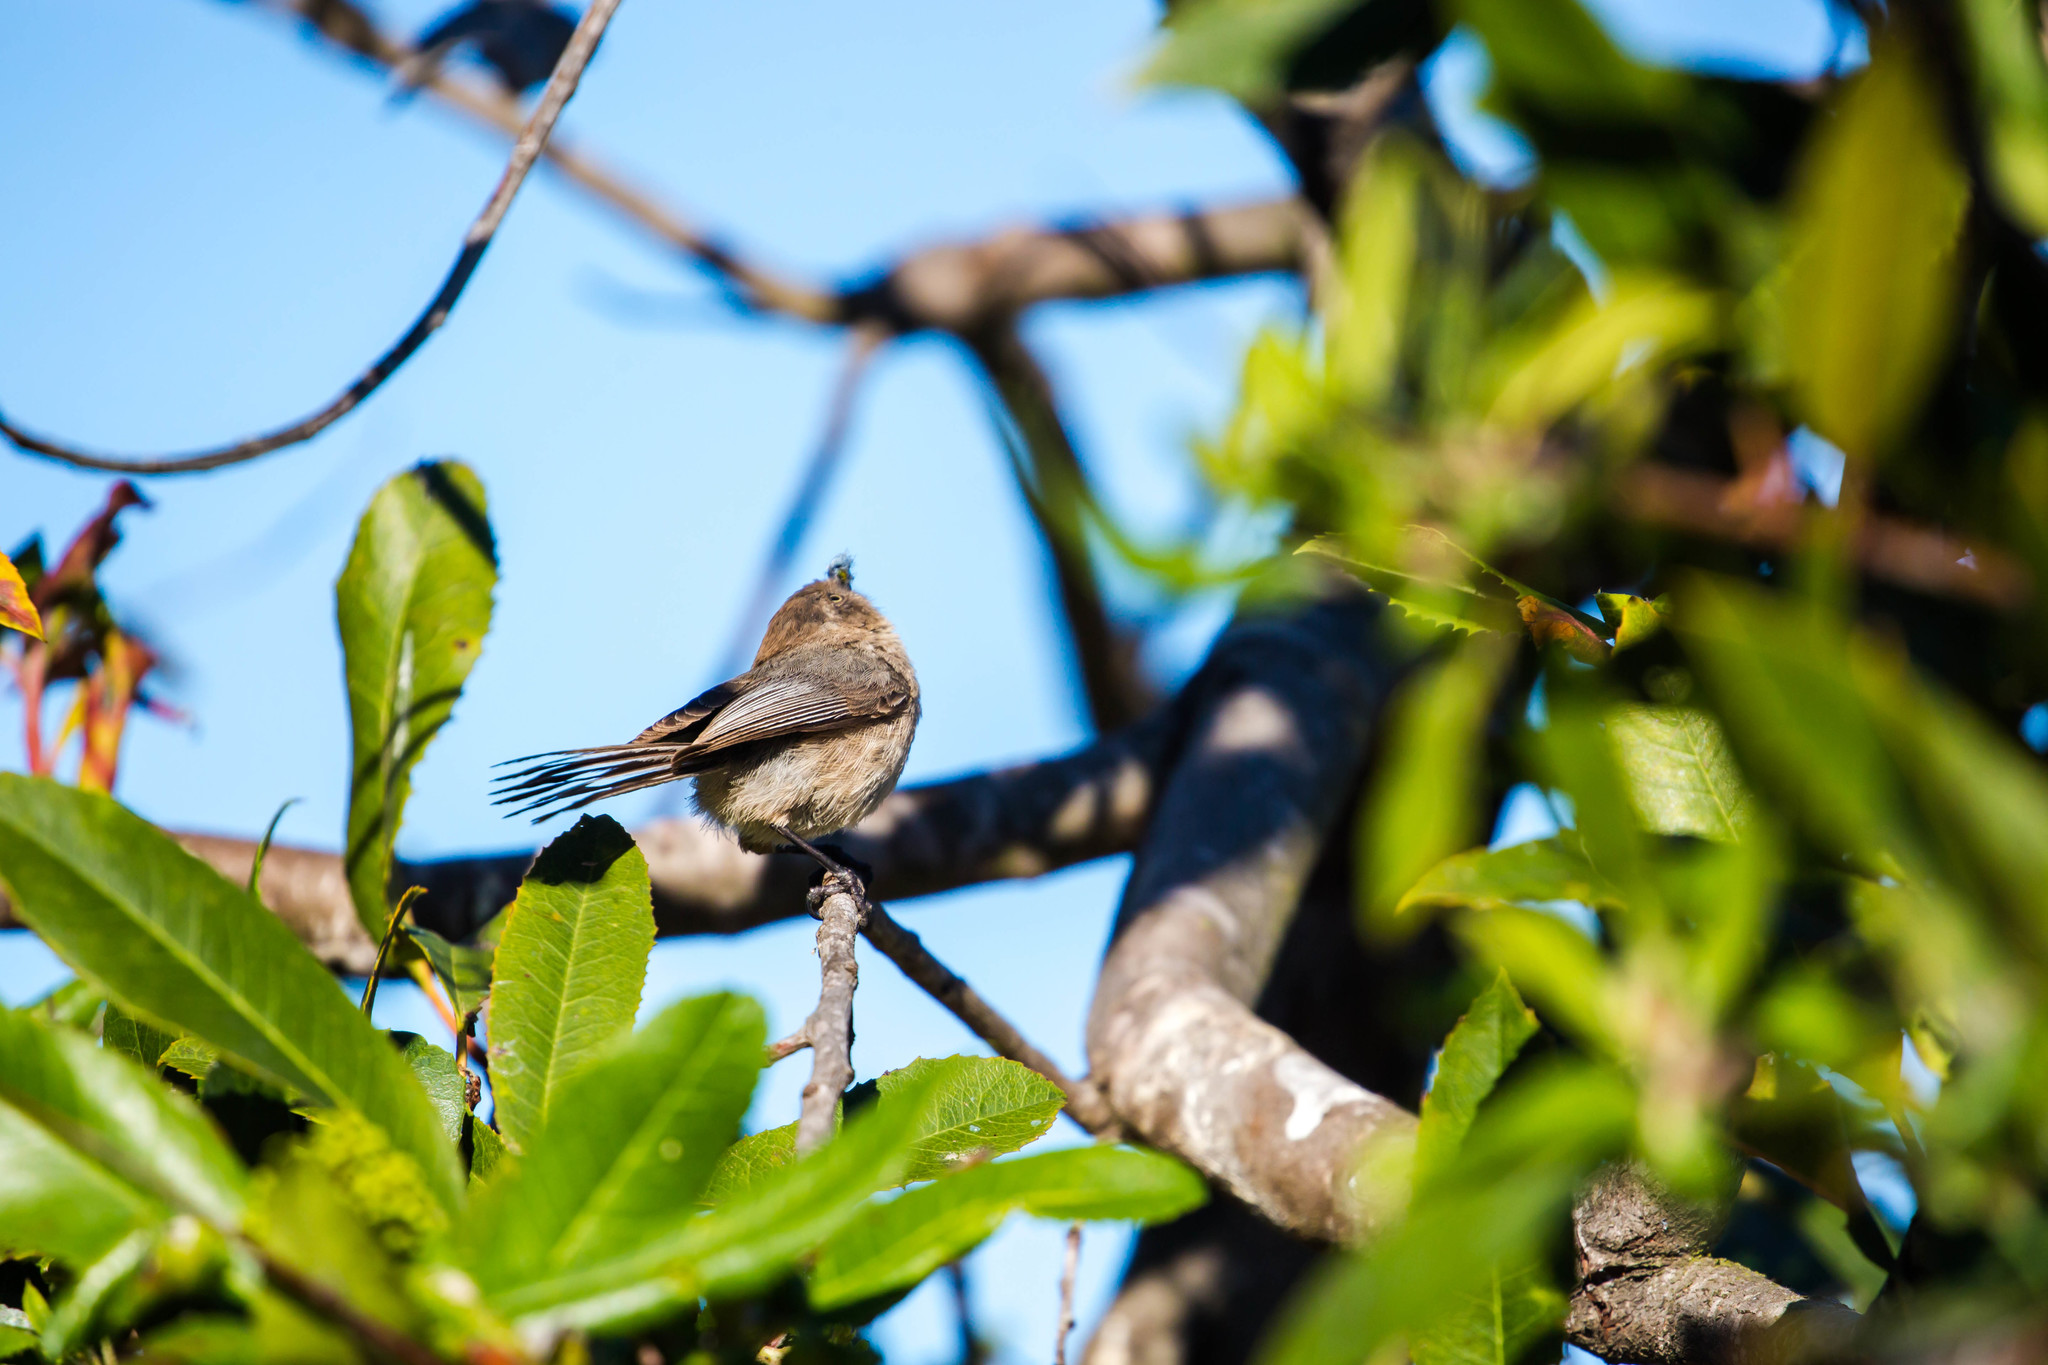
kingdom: Animalia
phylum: Chordata
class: Aves
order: Passeriformes
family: Aegithalidae
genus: Psaltriparus
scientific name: Psaltriparus minimus
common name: American bushtit
